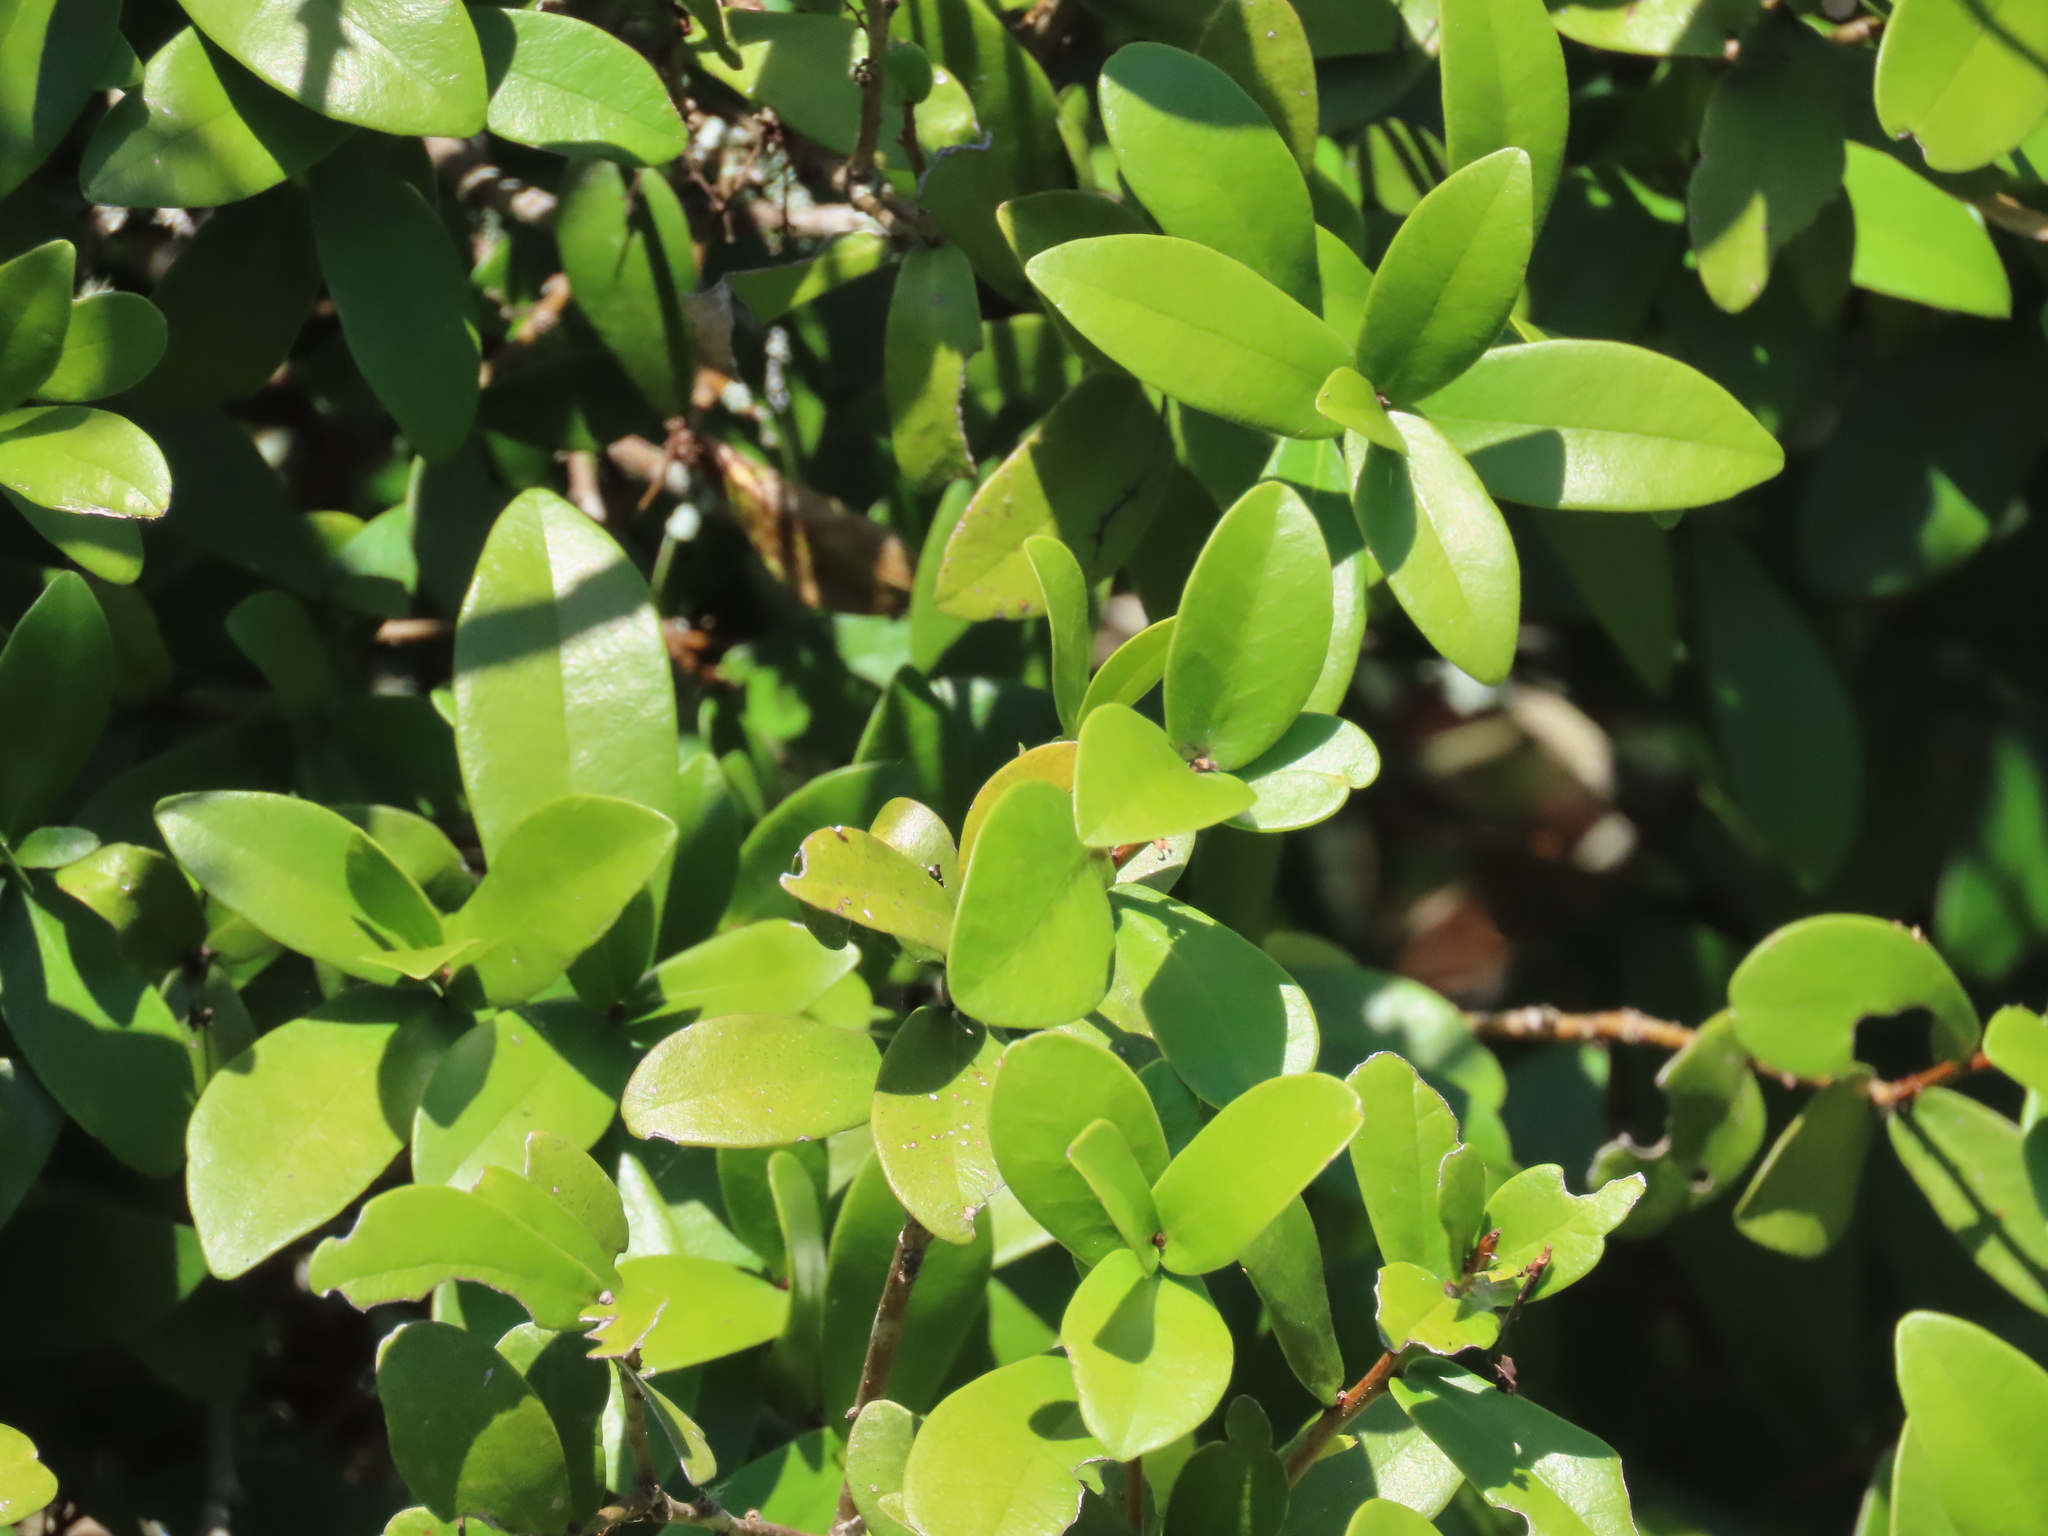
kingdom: Plantae
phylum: Tracheophyta
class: Magnoliopsida
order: Malvales
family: Thymelaeaceae
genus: Daphnopsis
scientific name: Daphnopsis racemosa
